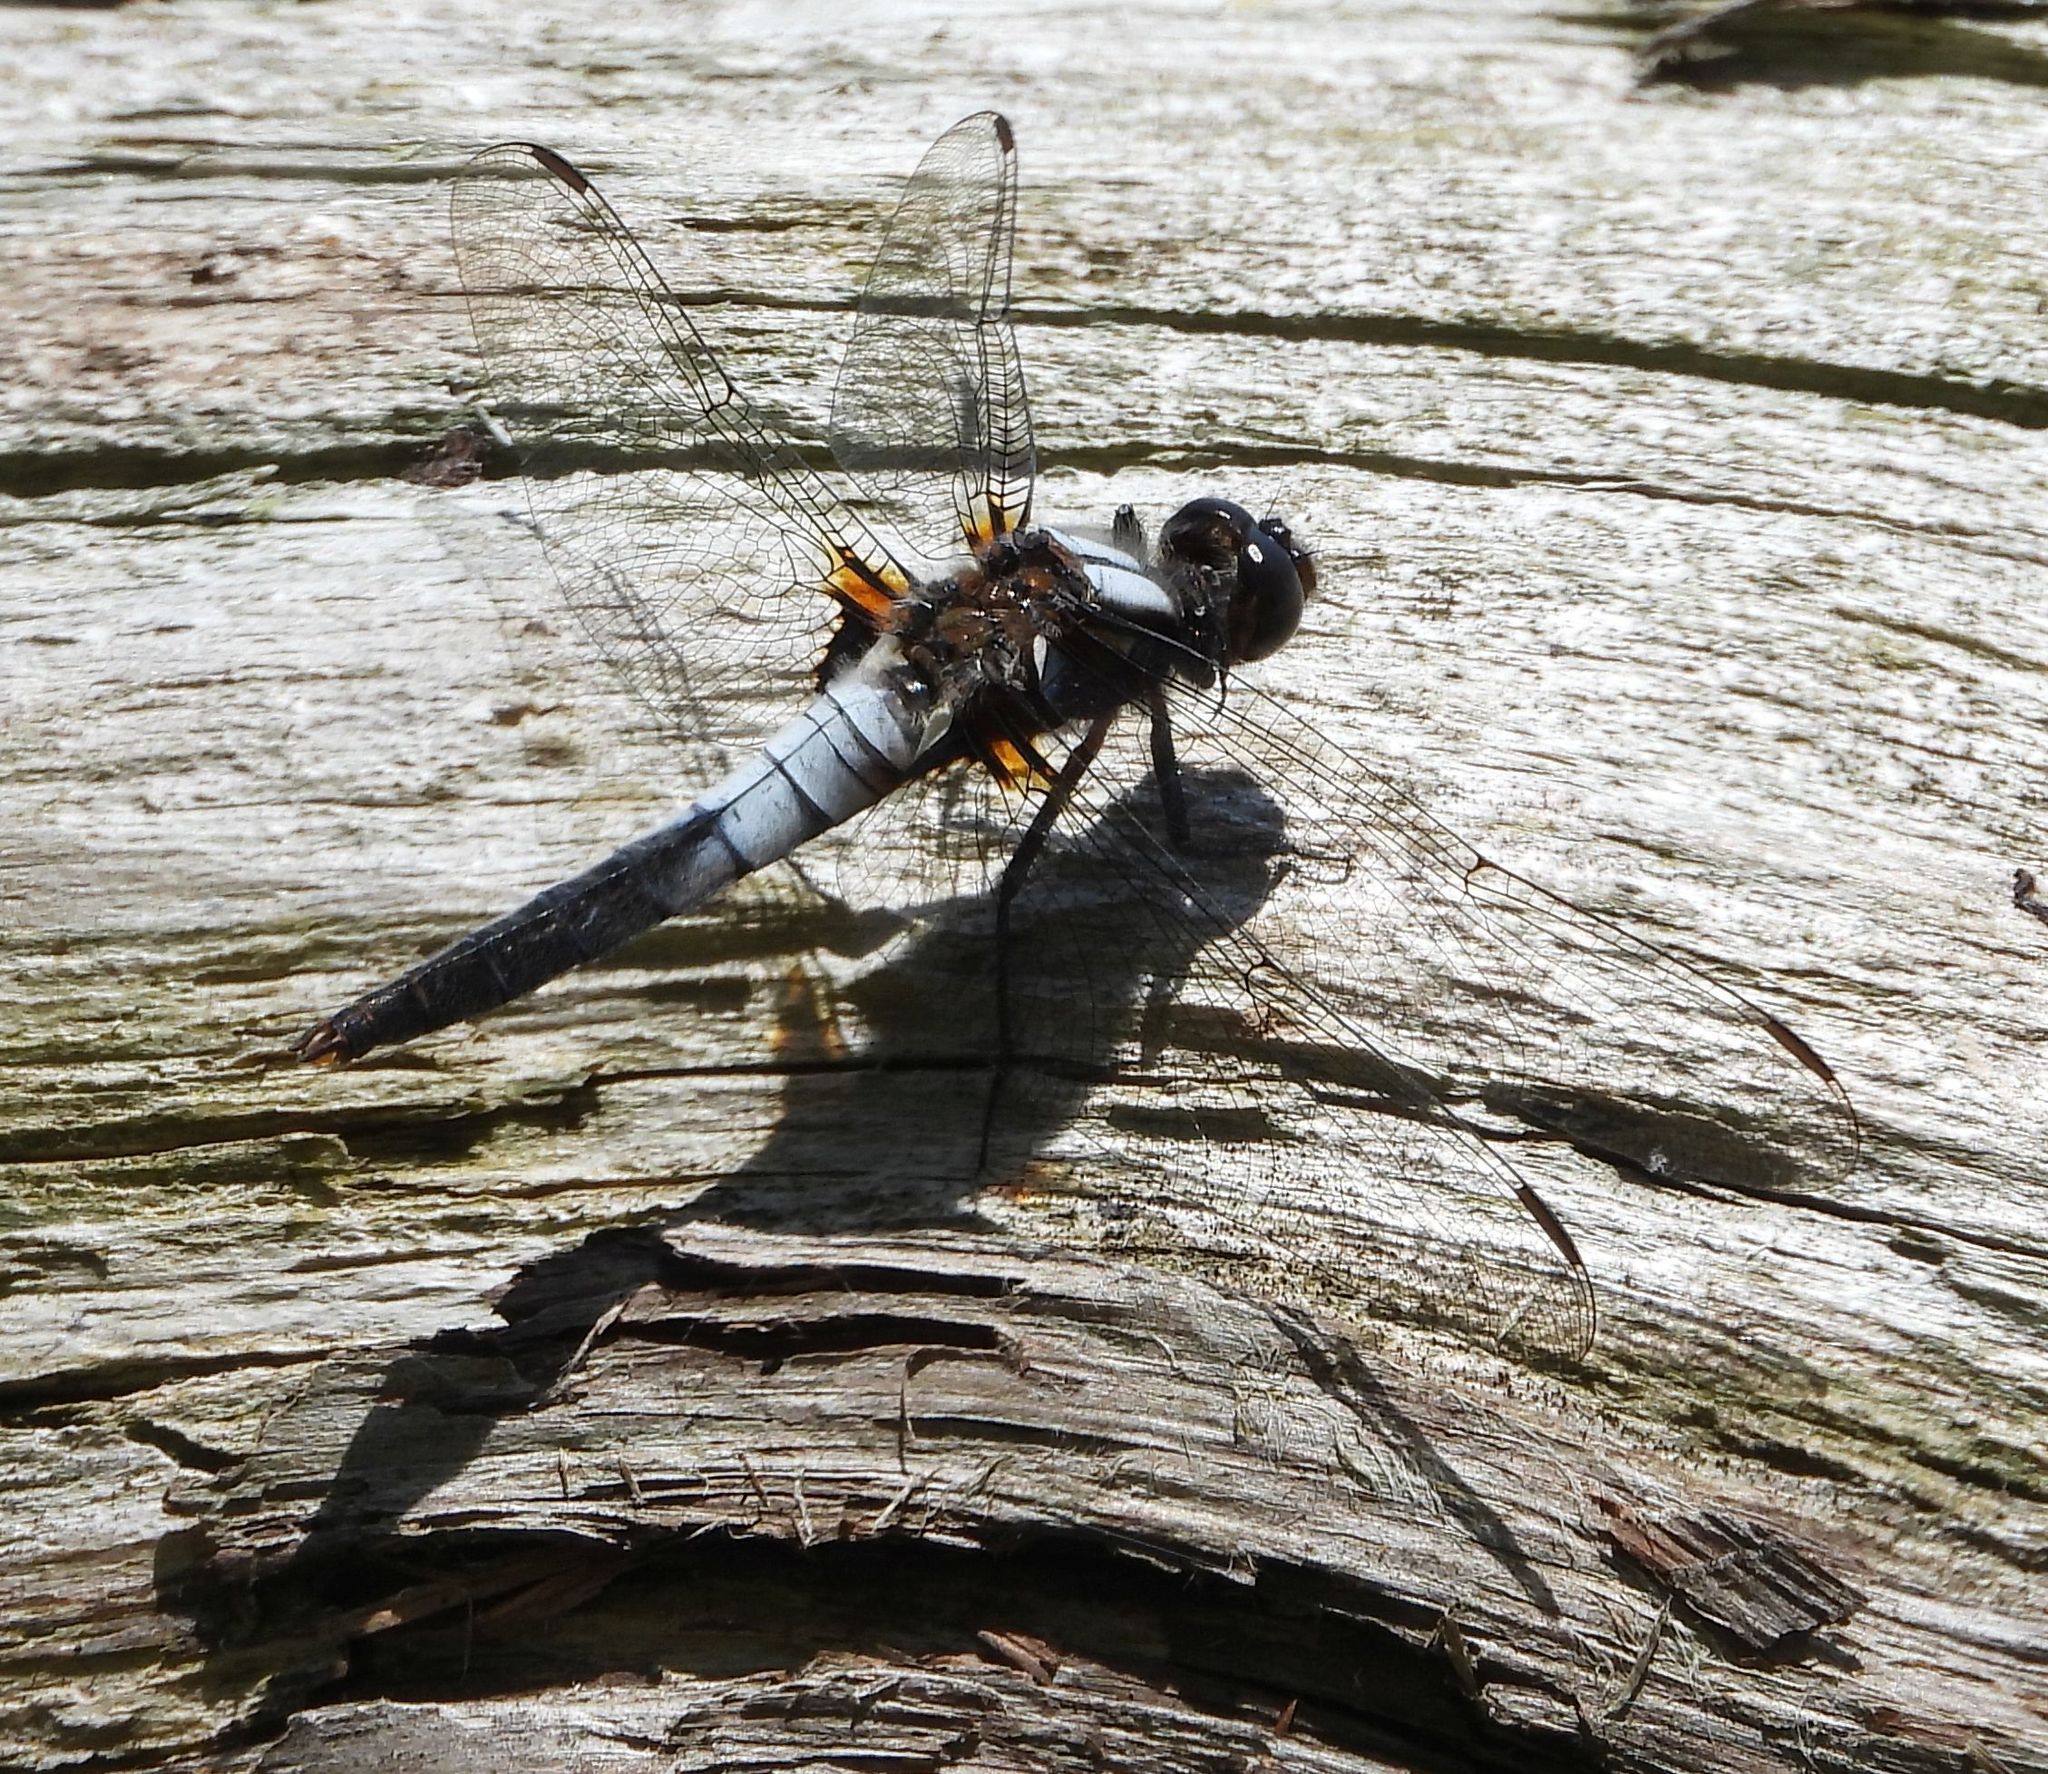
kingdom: Animalia
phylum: Arthropoda
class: Insecta
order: Odonata
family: Libellulidae
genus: Ladona
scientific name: Ladona julia
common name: Chalk-fronted corporal
